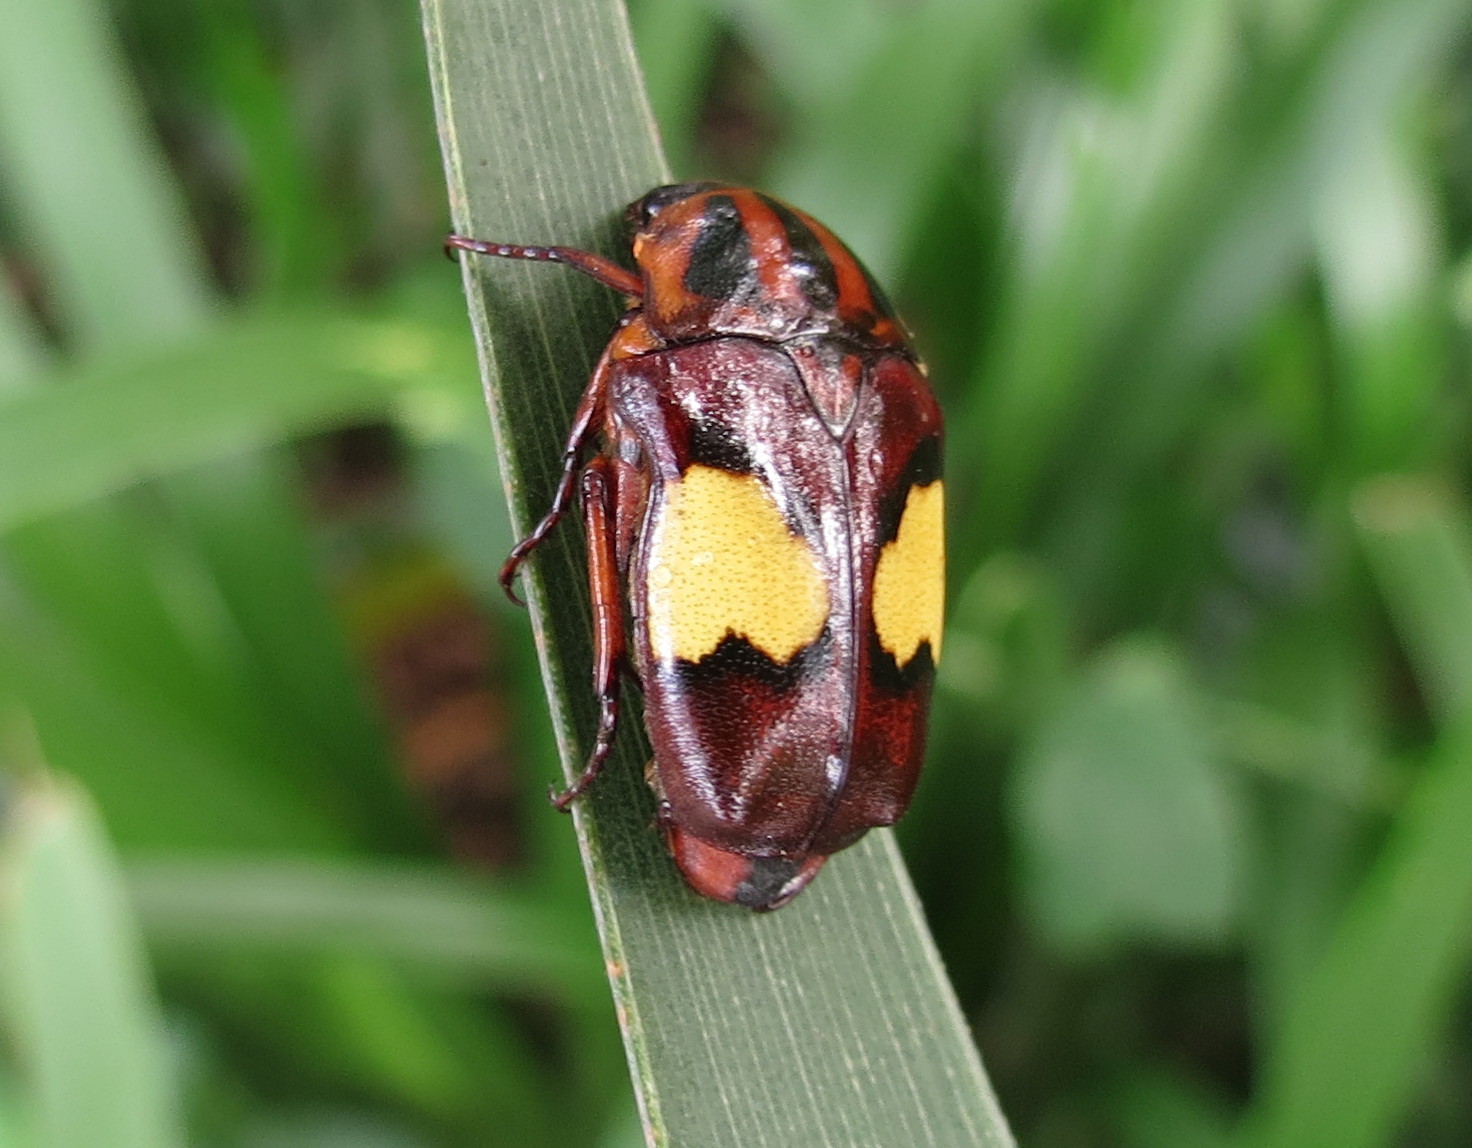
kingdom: Animalia
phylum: Arthropoda
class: Insecta
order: Coleoptera
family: Scarabaeidae
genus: Pedinorrhina
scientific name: Pedinorrhina
